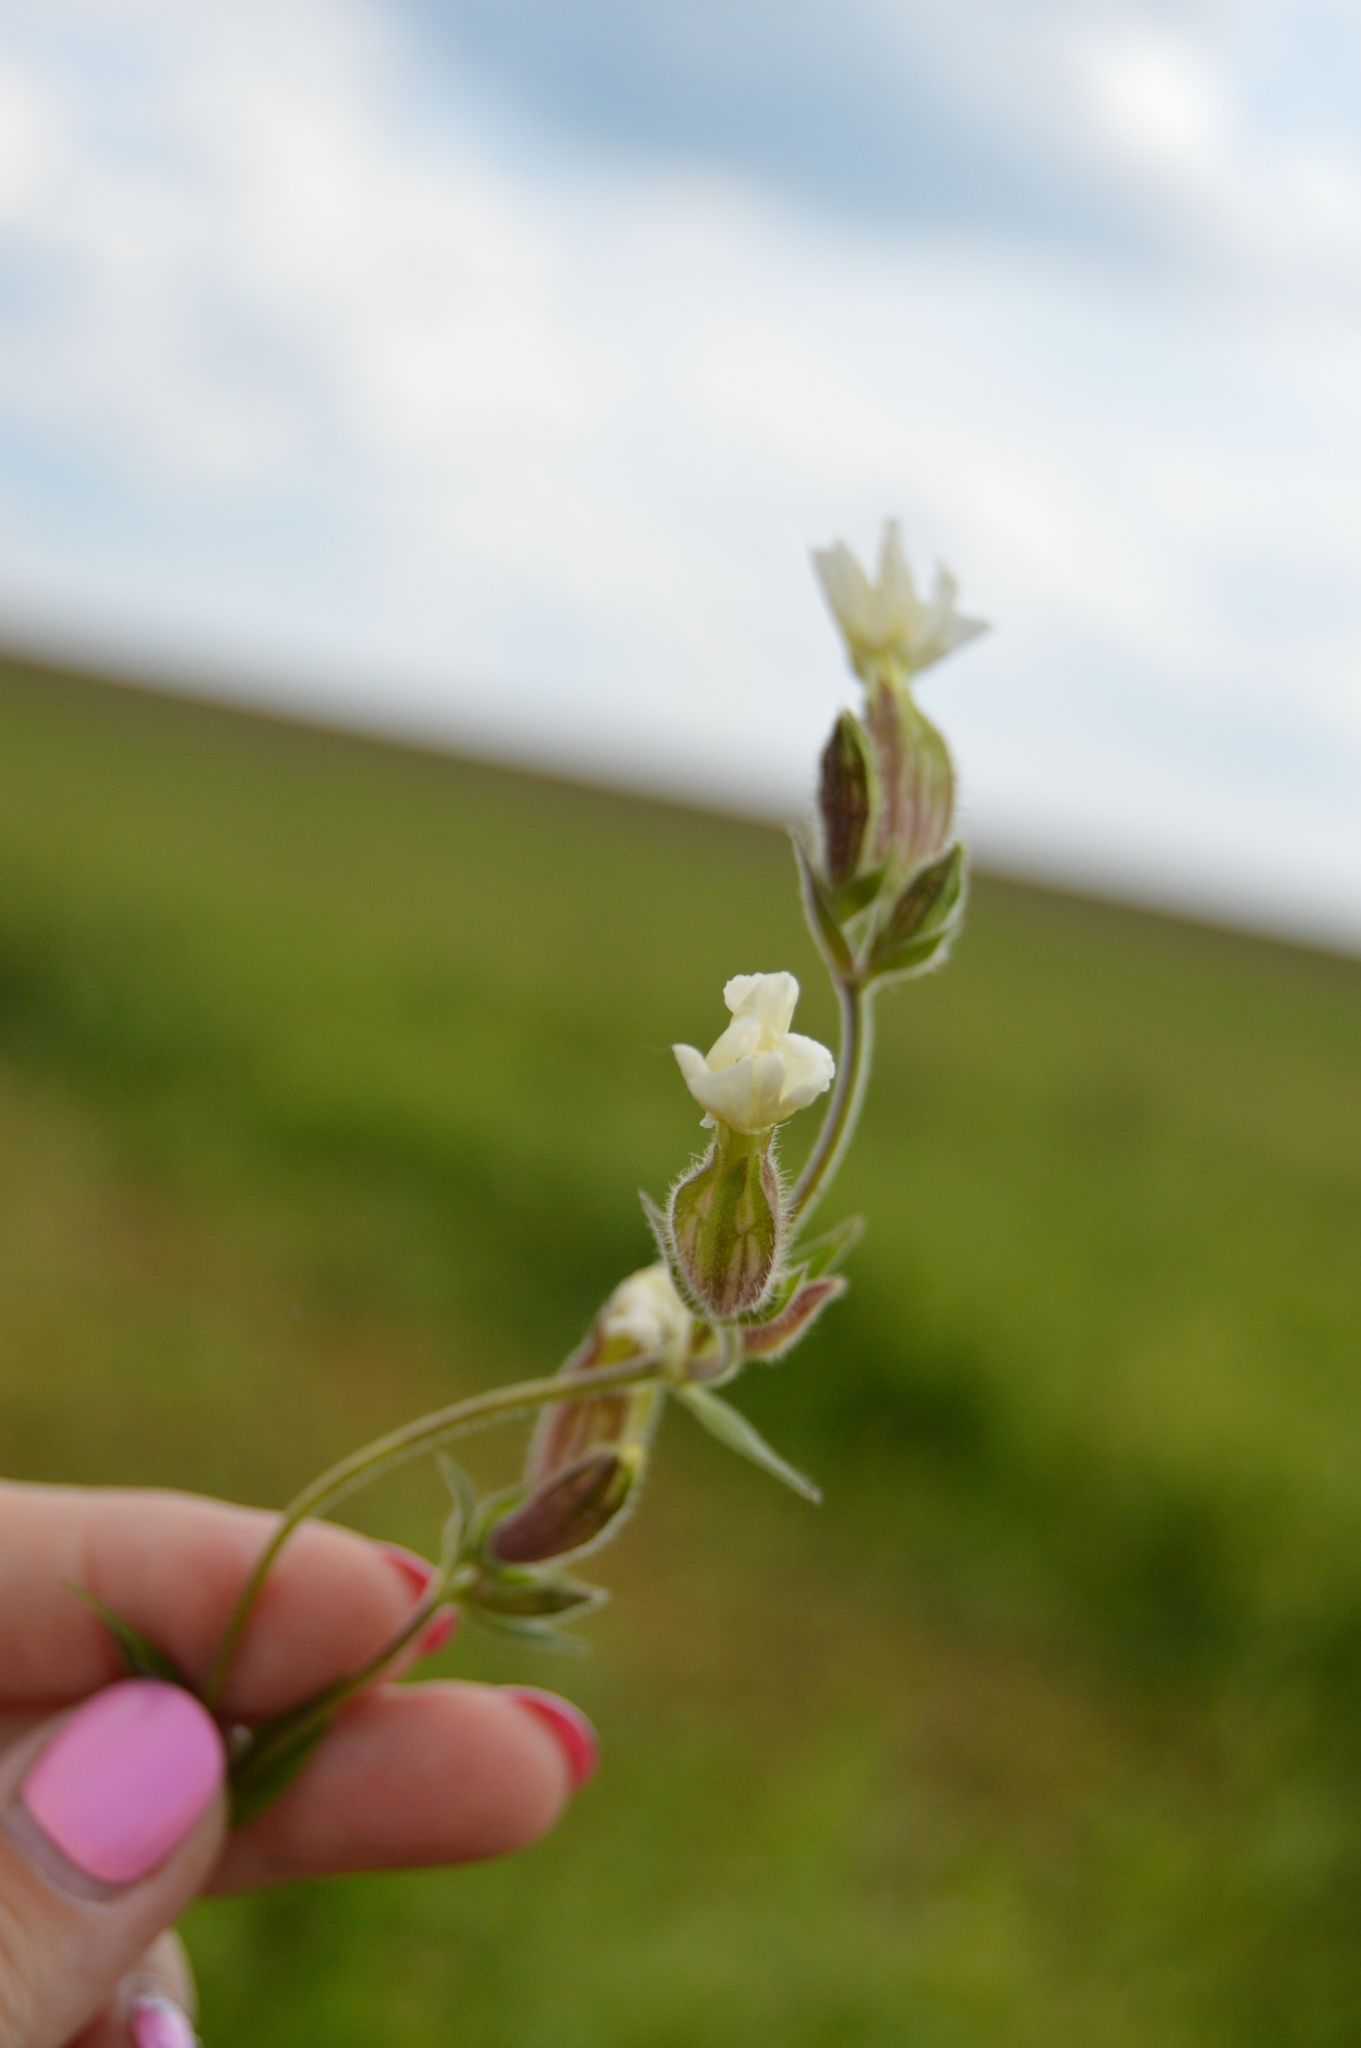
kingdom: Plantae
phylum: Tracheophyta
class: Magnoliopsida
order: Caryophyllales
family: Caryophyllaceae
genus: Silene
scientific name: Silene latifolia
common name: White campion
